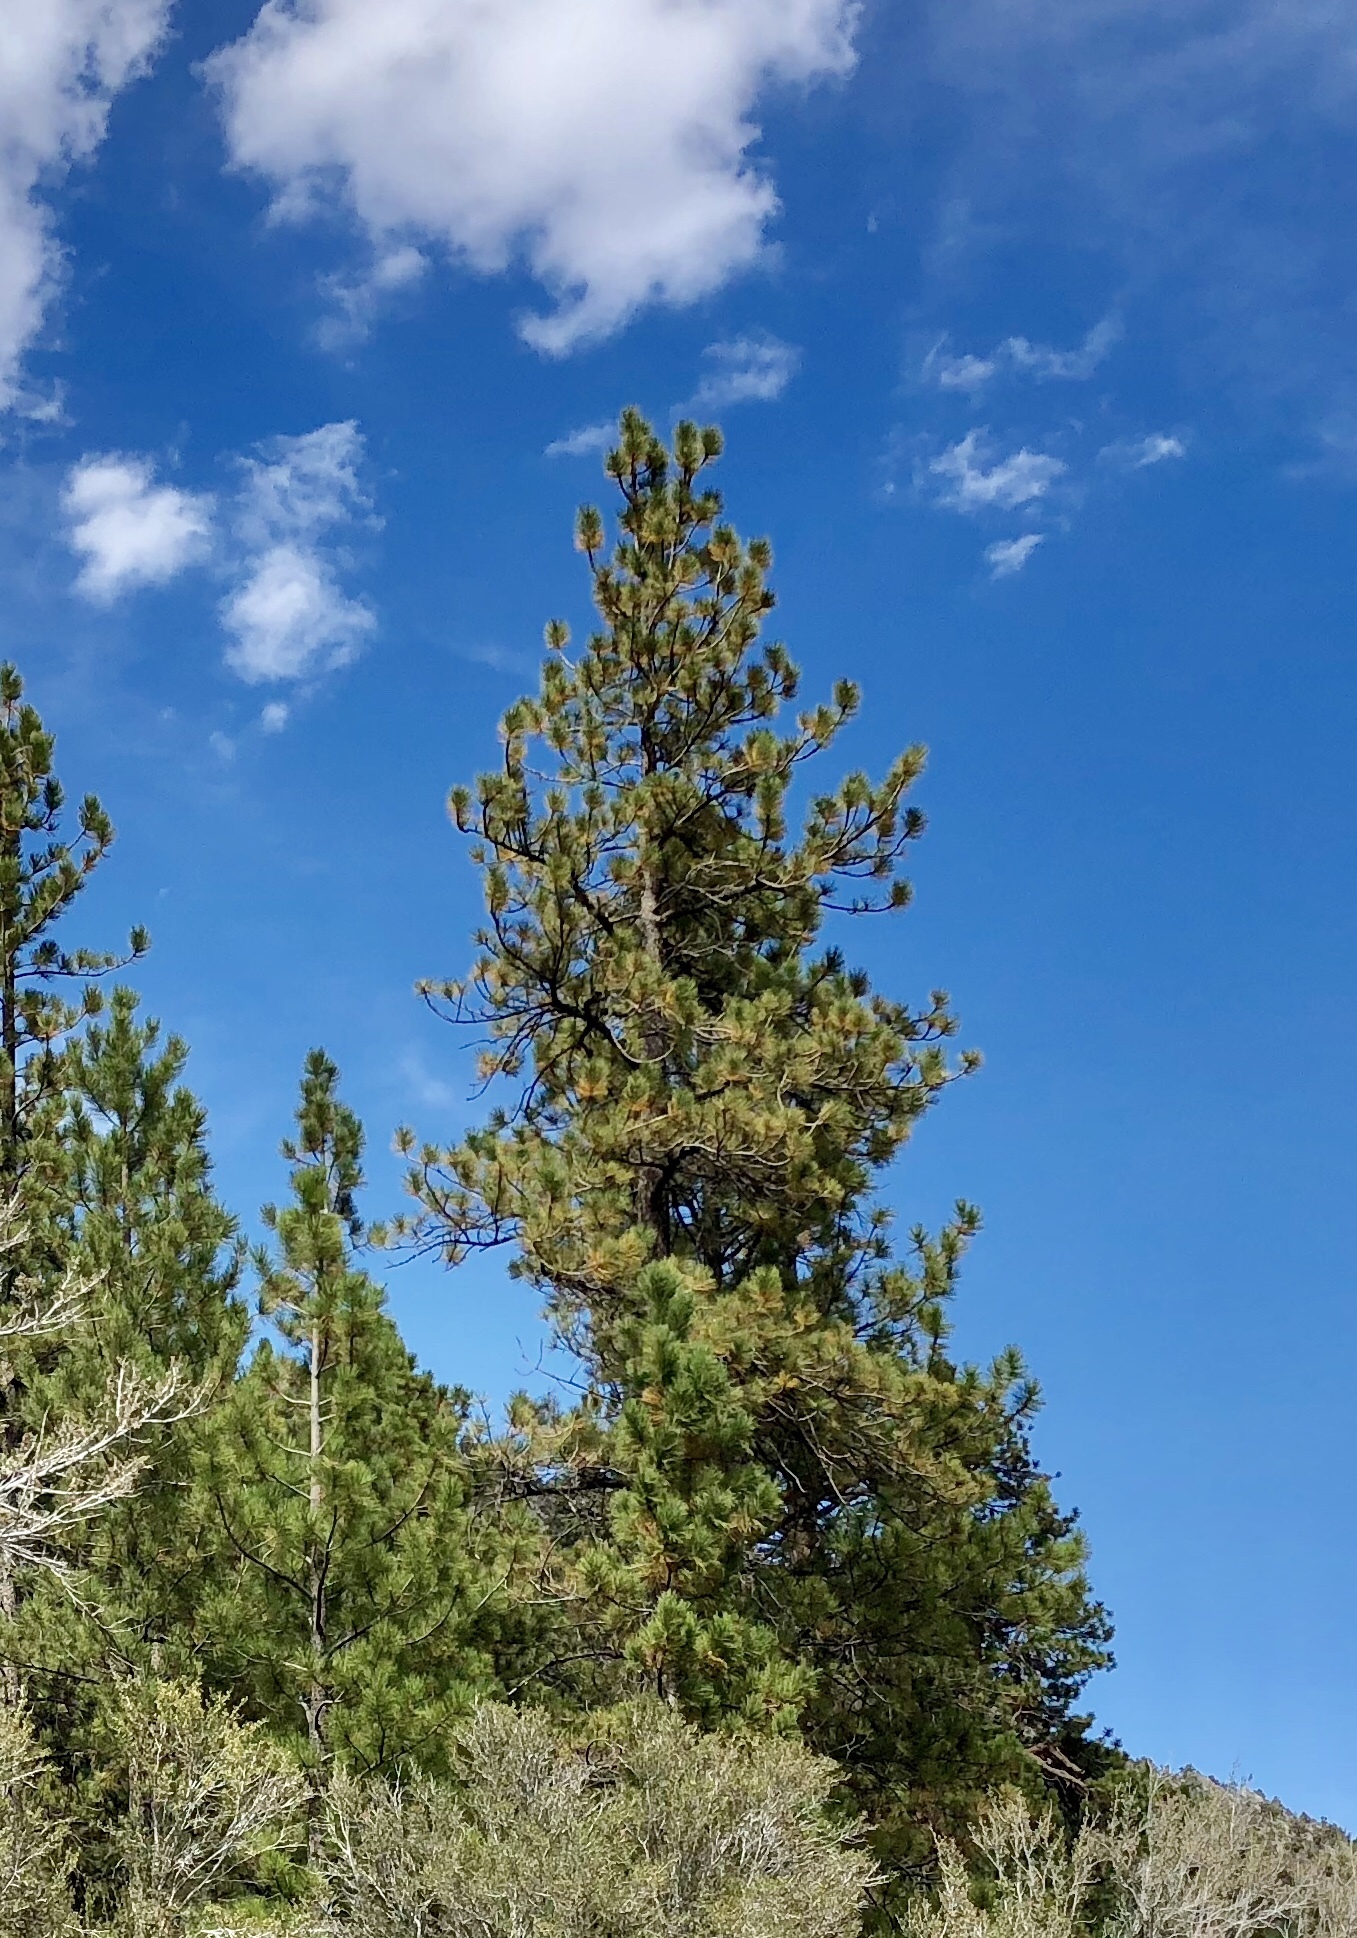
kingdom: Plantae
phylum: Tracheophyta
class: Pinopsida
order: Pinales
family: Pinaceae
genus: Pinus
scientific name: Pinus ponderosa
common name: Western yellow-pine
